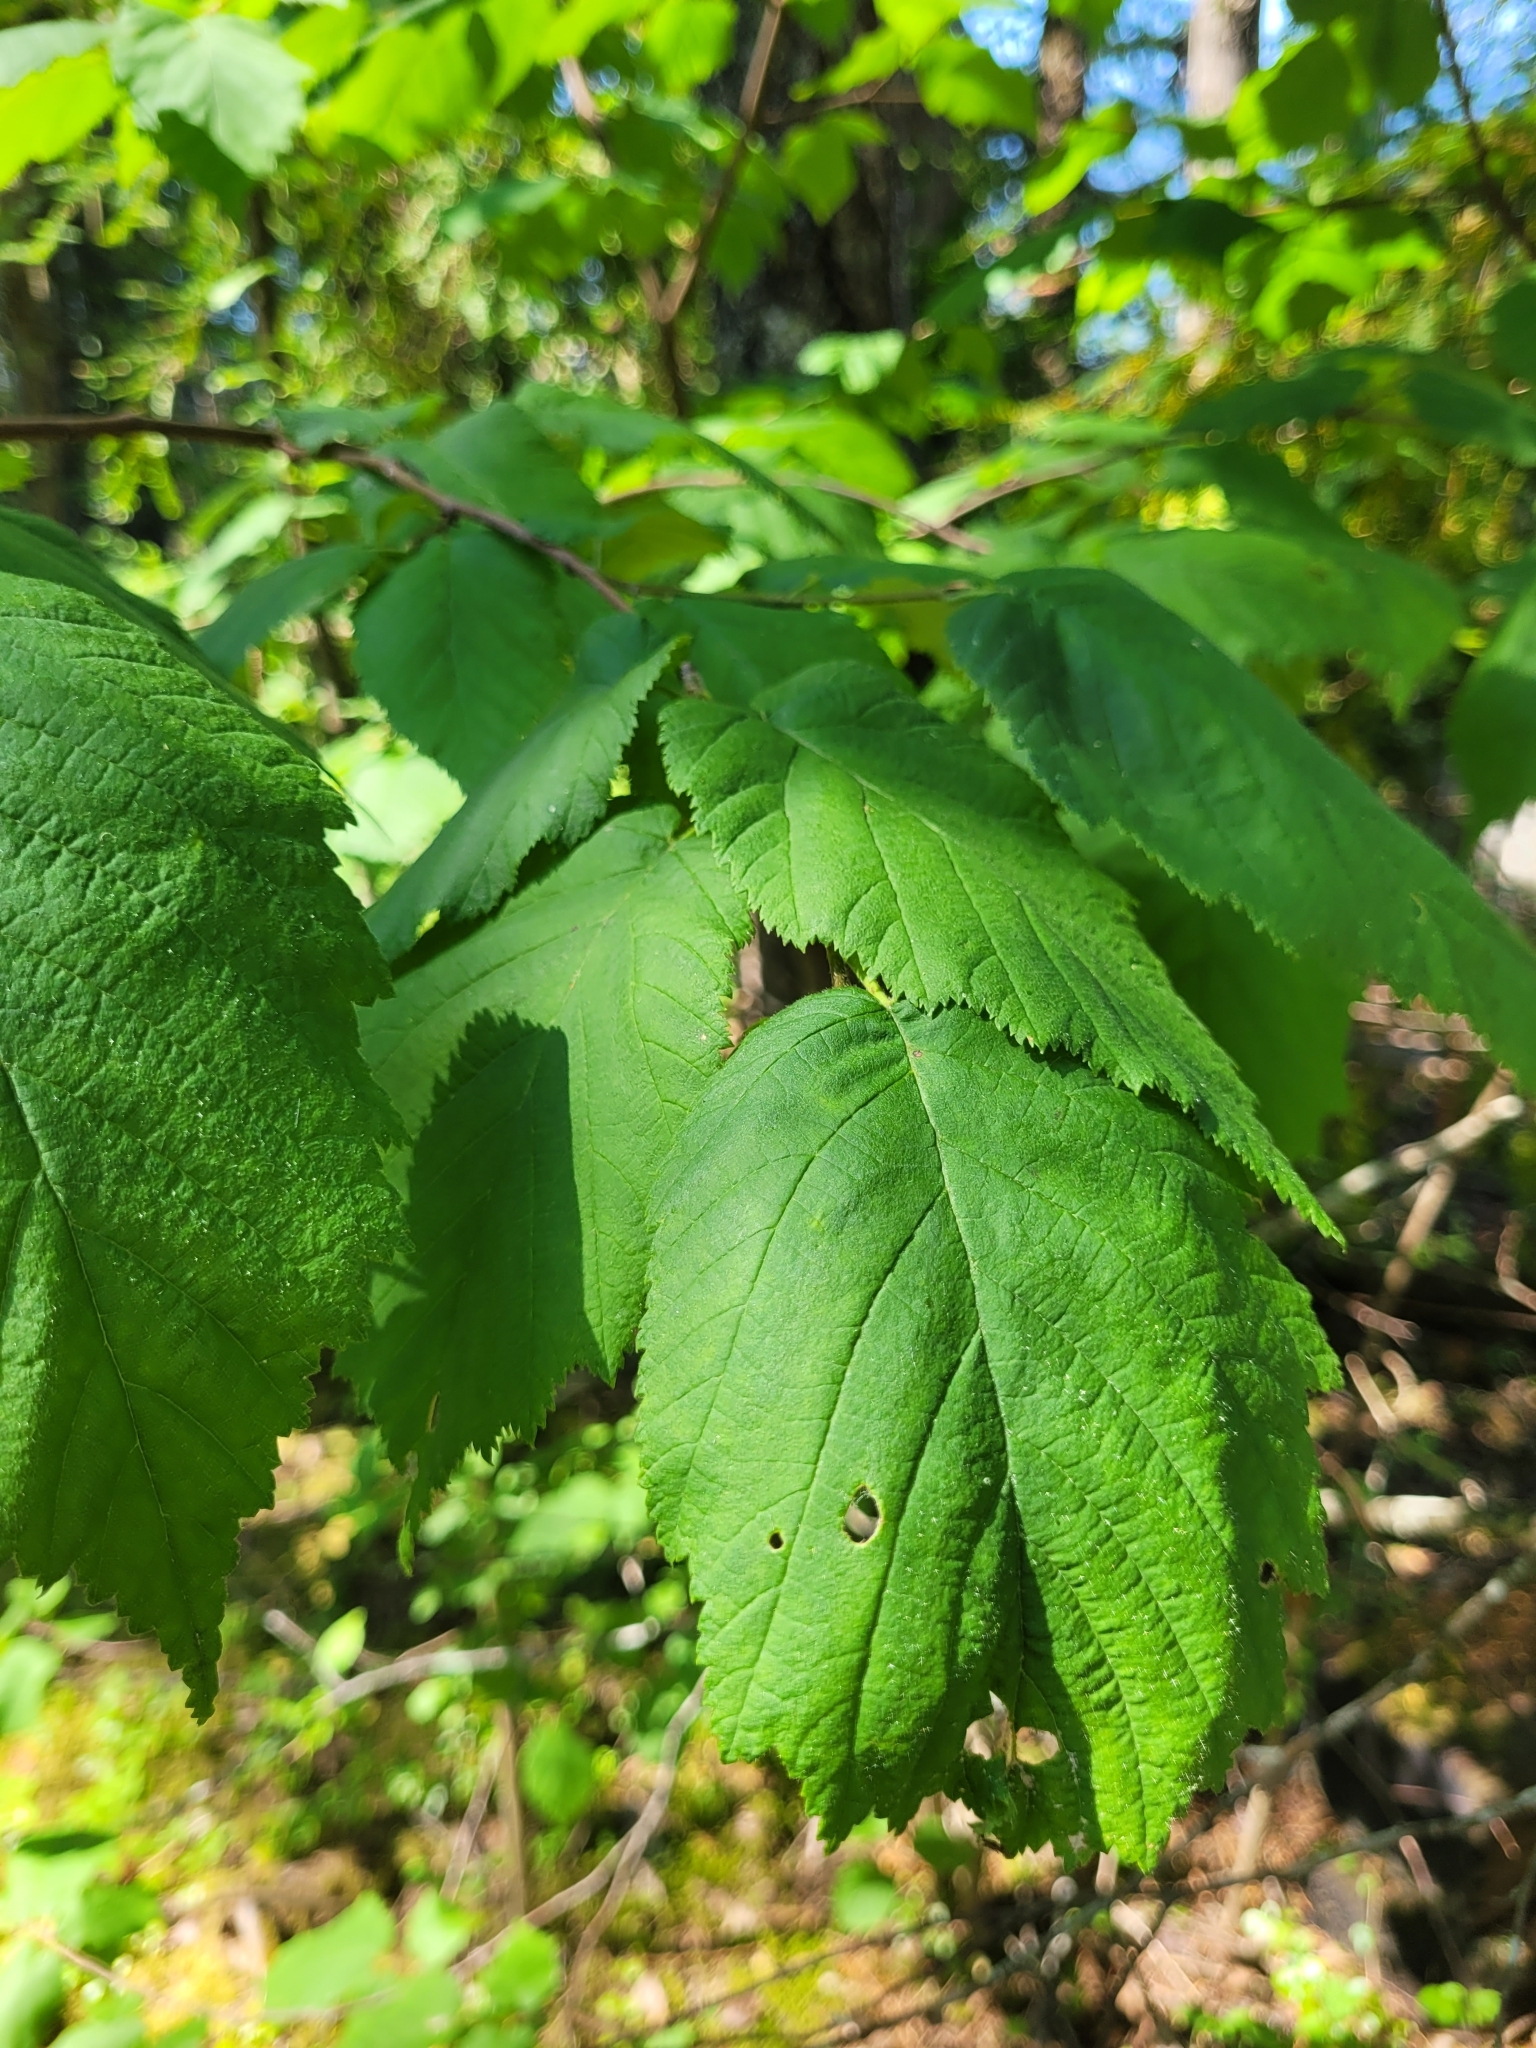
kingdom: Plantae
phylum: Tracheophyta
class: Magnoliopsida
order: Fagales
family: Betulaceae
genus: Corylus
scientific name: Corylus cornuta
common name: Beaked hazel
